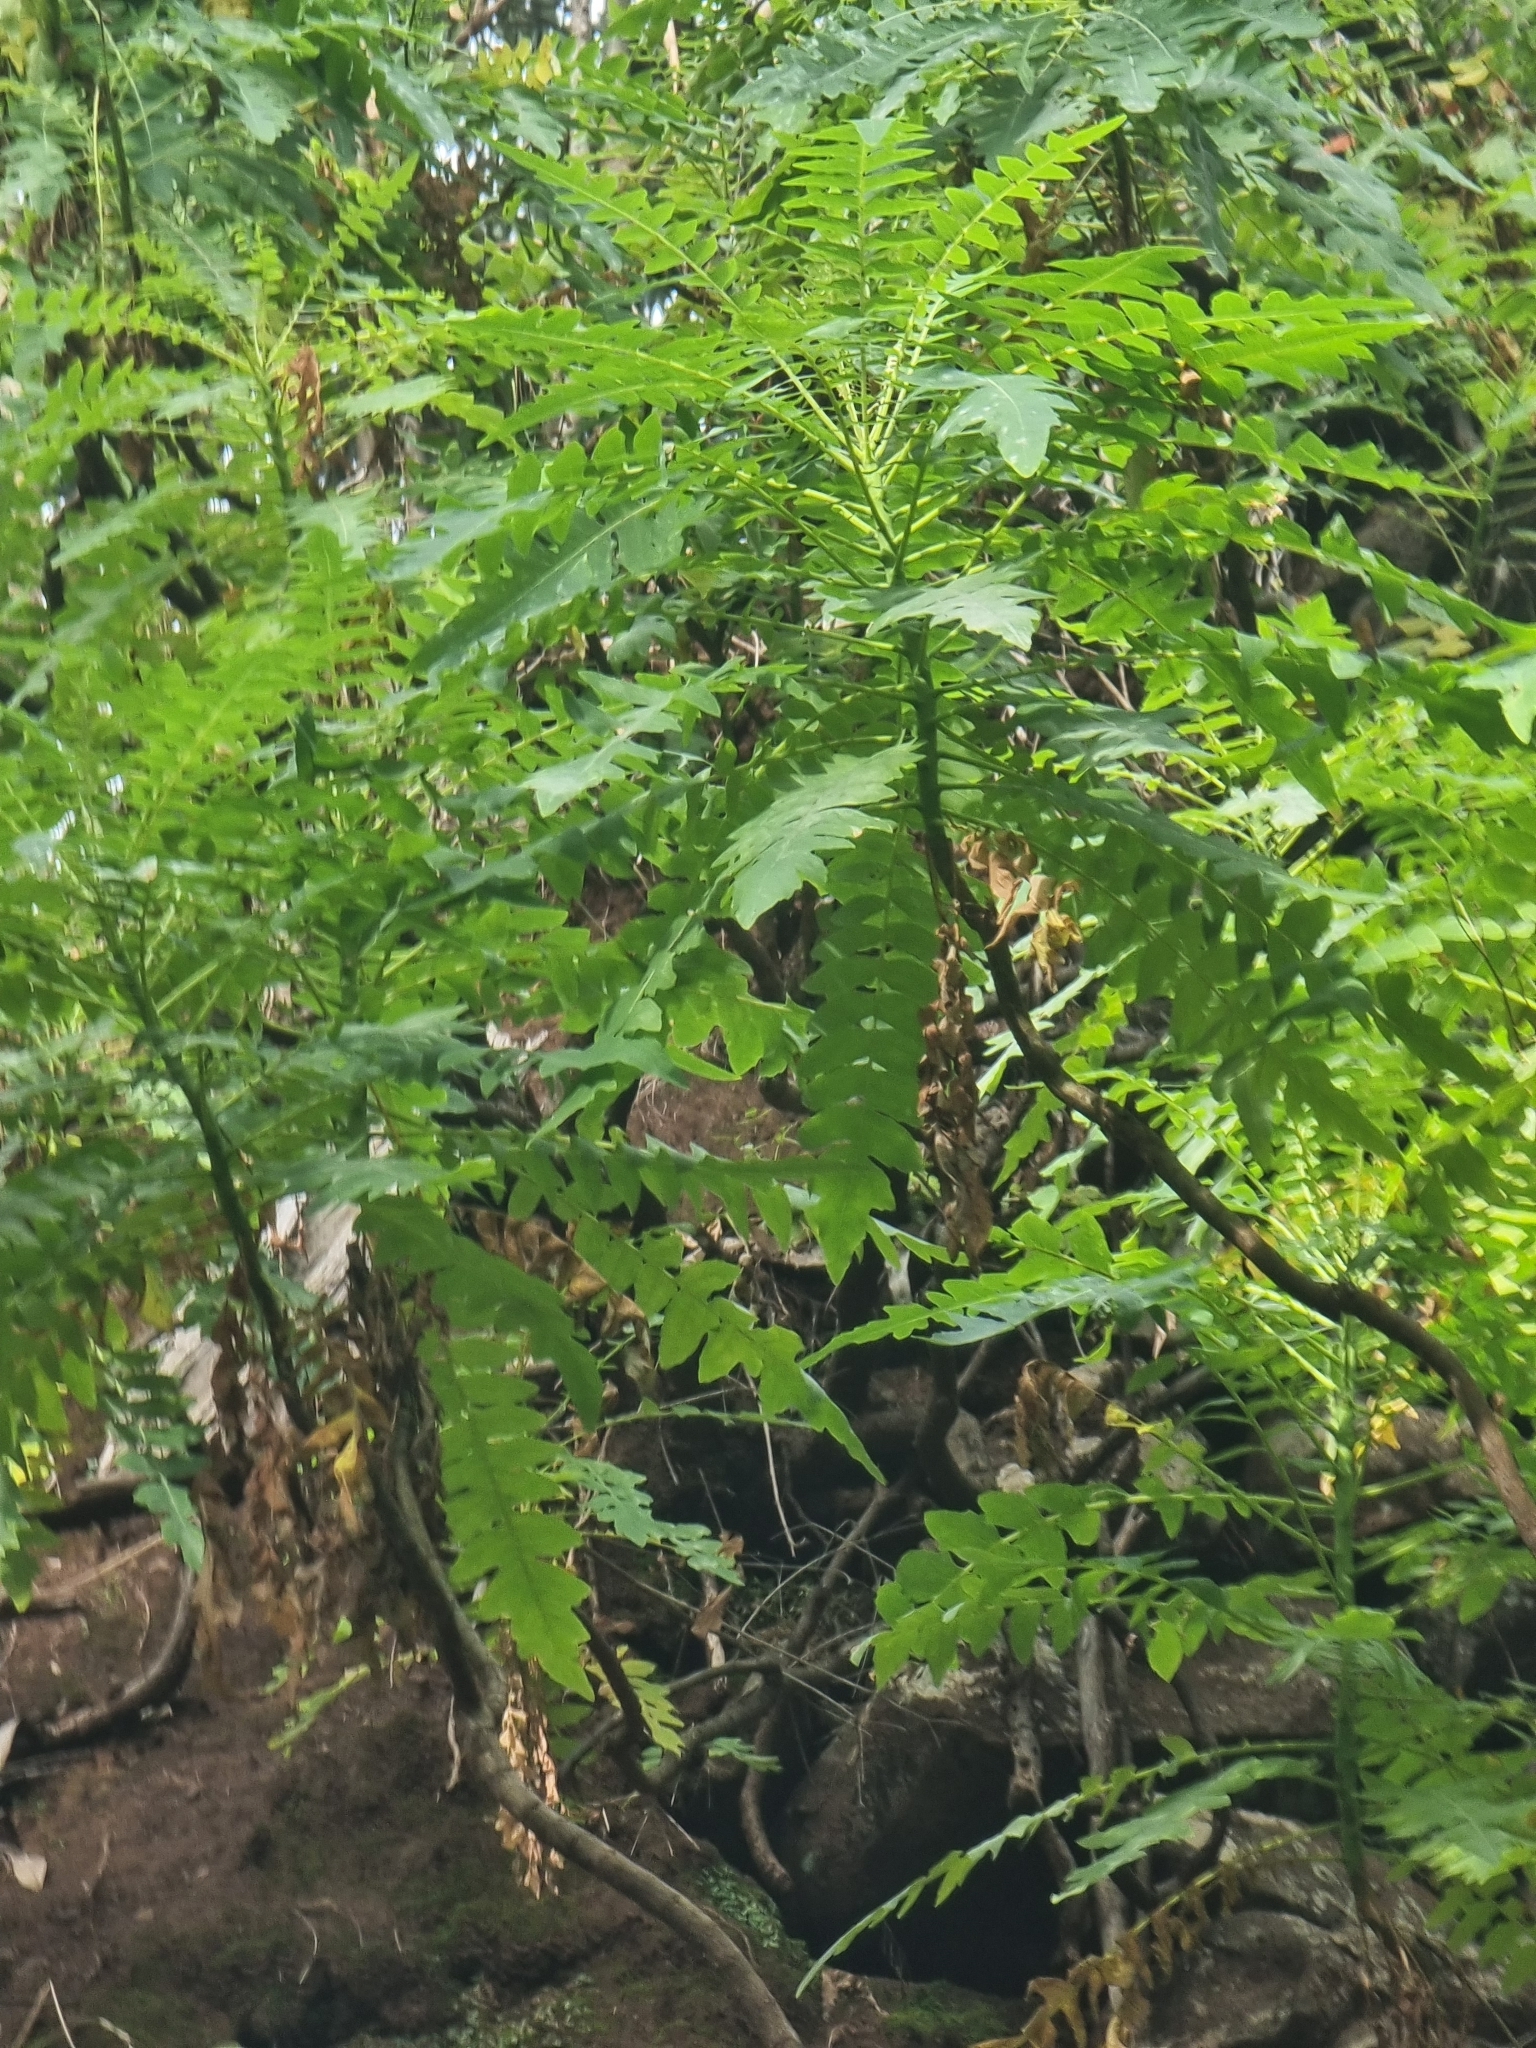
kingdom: Plantae
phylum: Tracheophyta
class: Magnoliopsida
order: Asterales
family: Asteraceae
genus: Sonchus
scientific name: Sonchus pinnatus
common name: Wing-leaved sow-thistle
